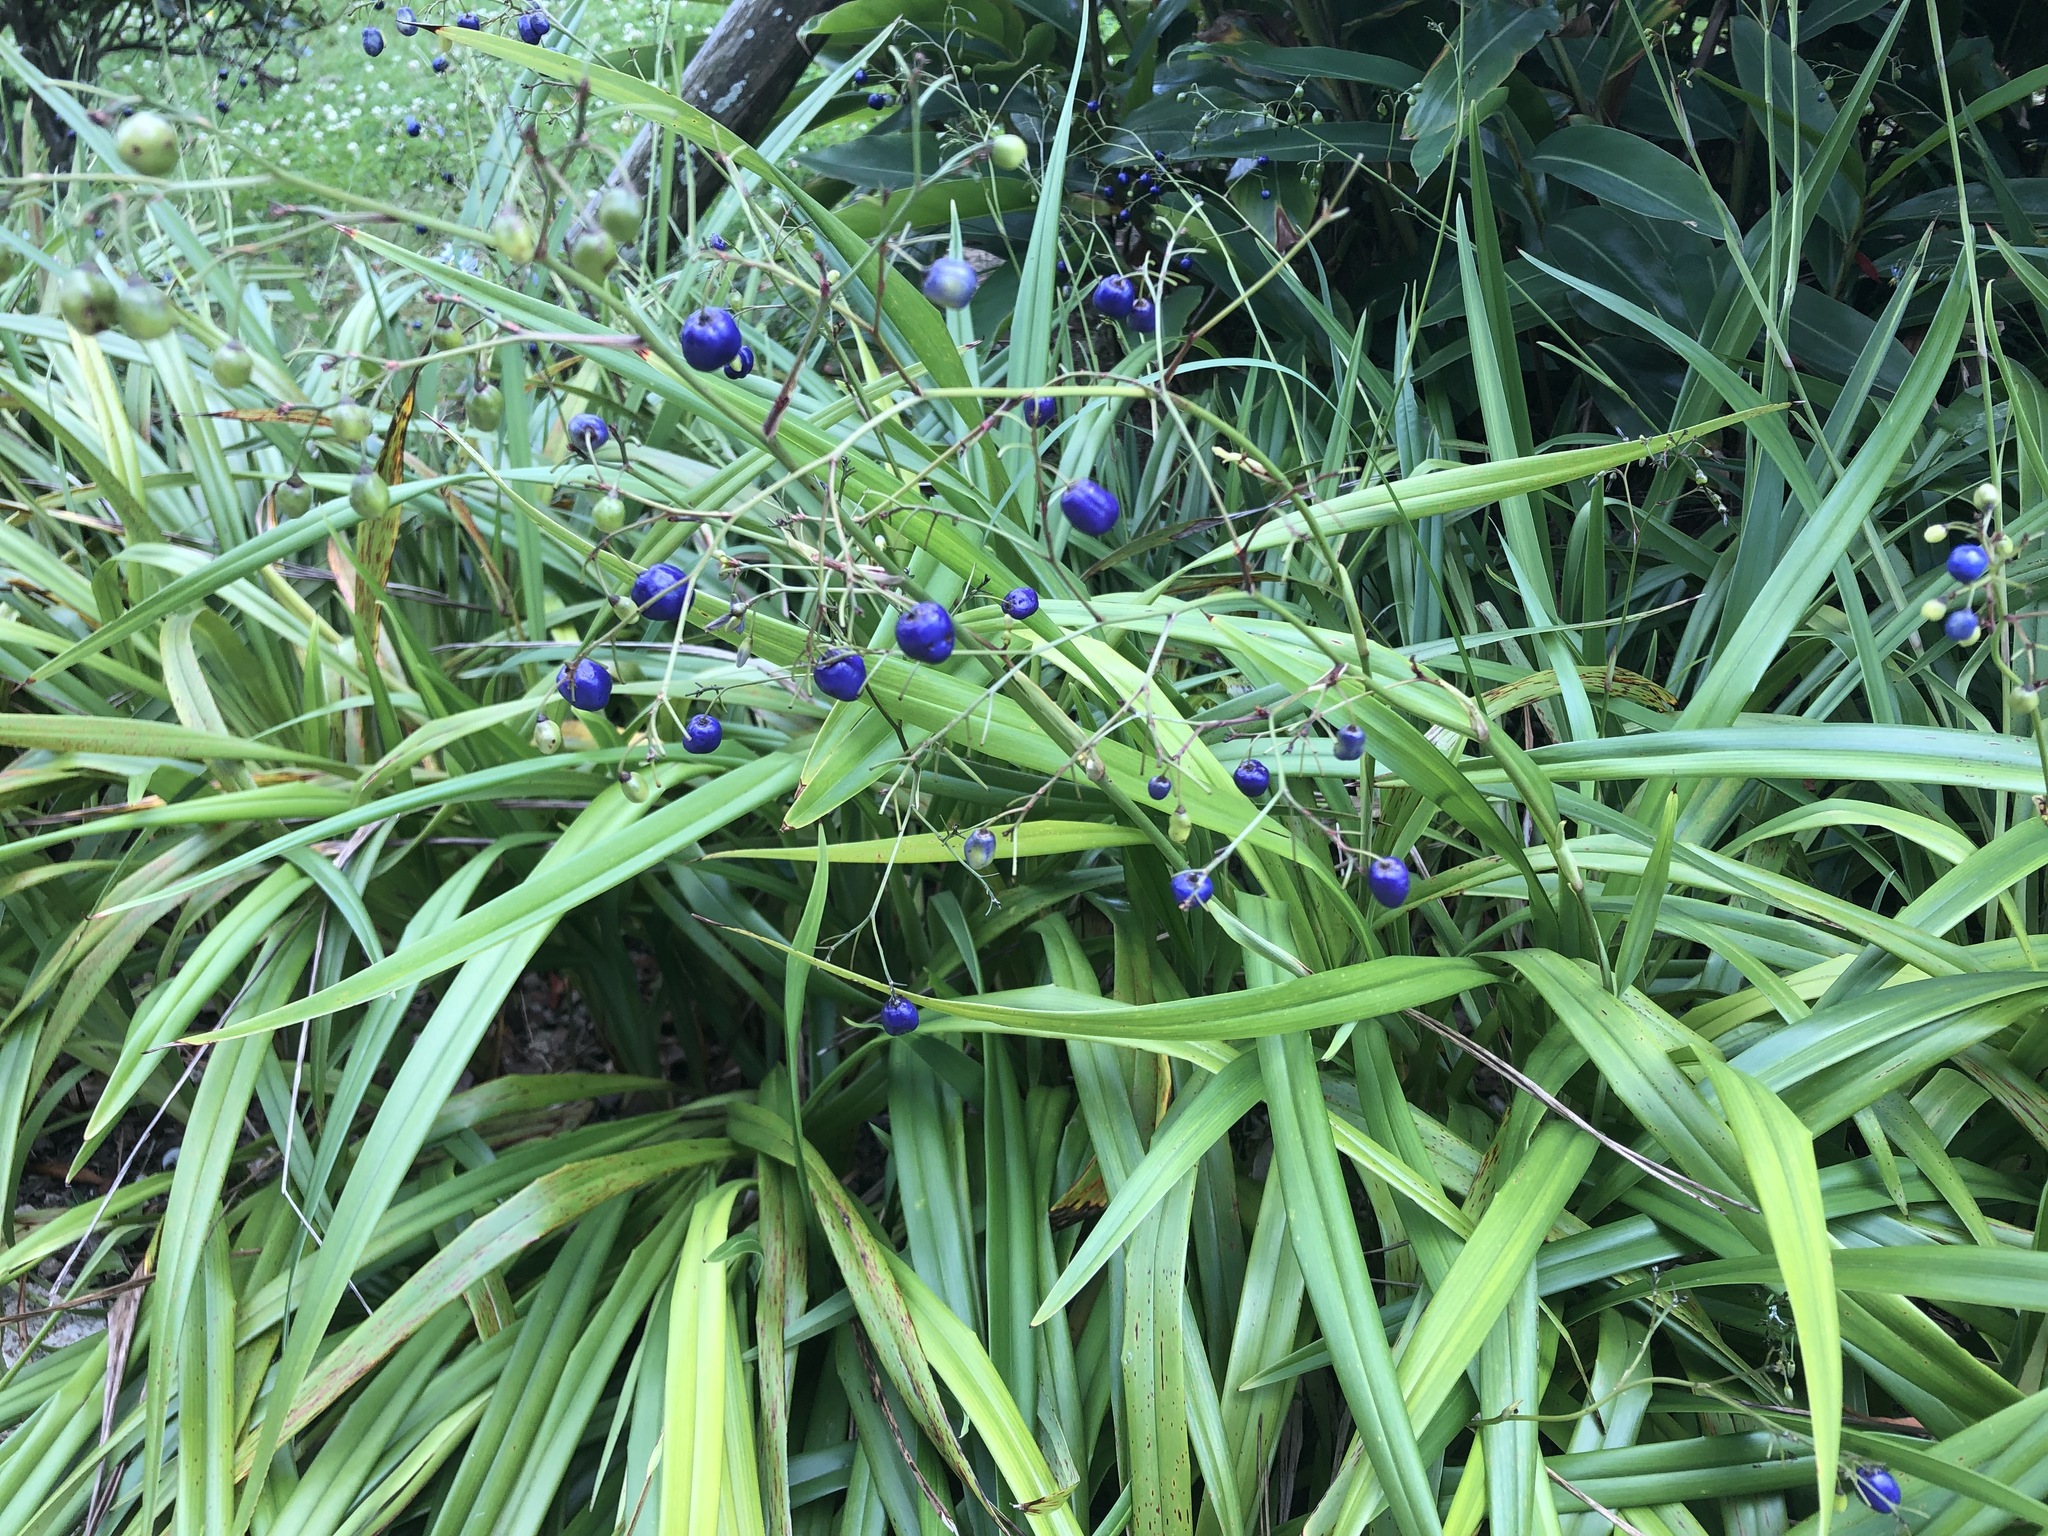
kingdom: Plantae
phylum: Tracheophyta
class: Liliopsida
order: Asparagales
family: Asphodelaceae
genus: Dianella
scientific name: Dianella ensifolia
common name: New zealand lilyplant
